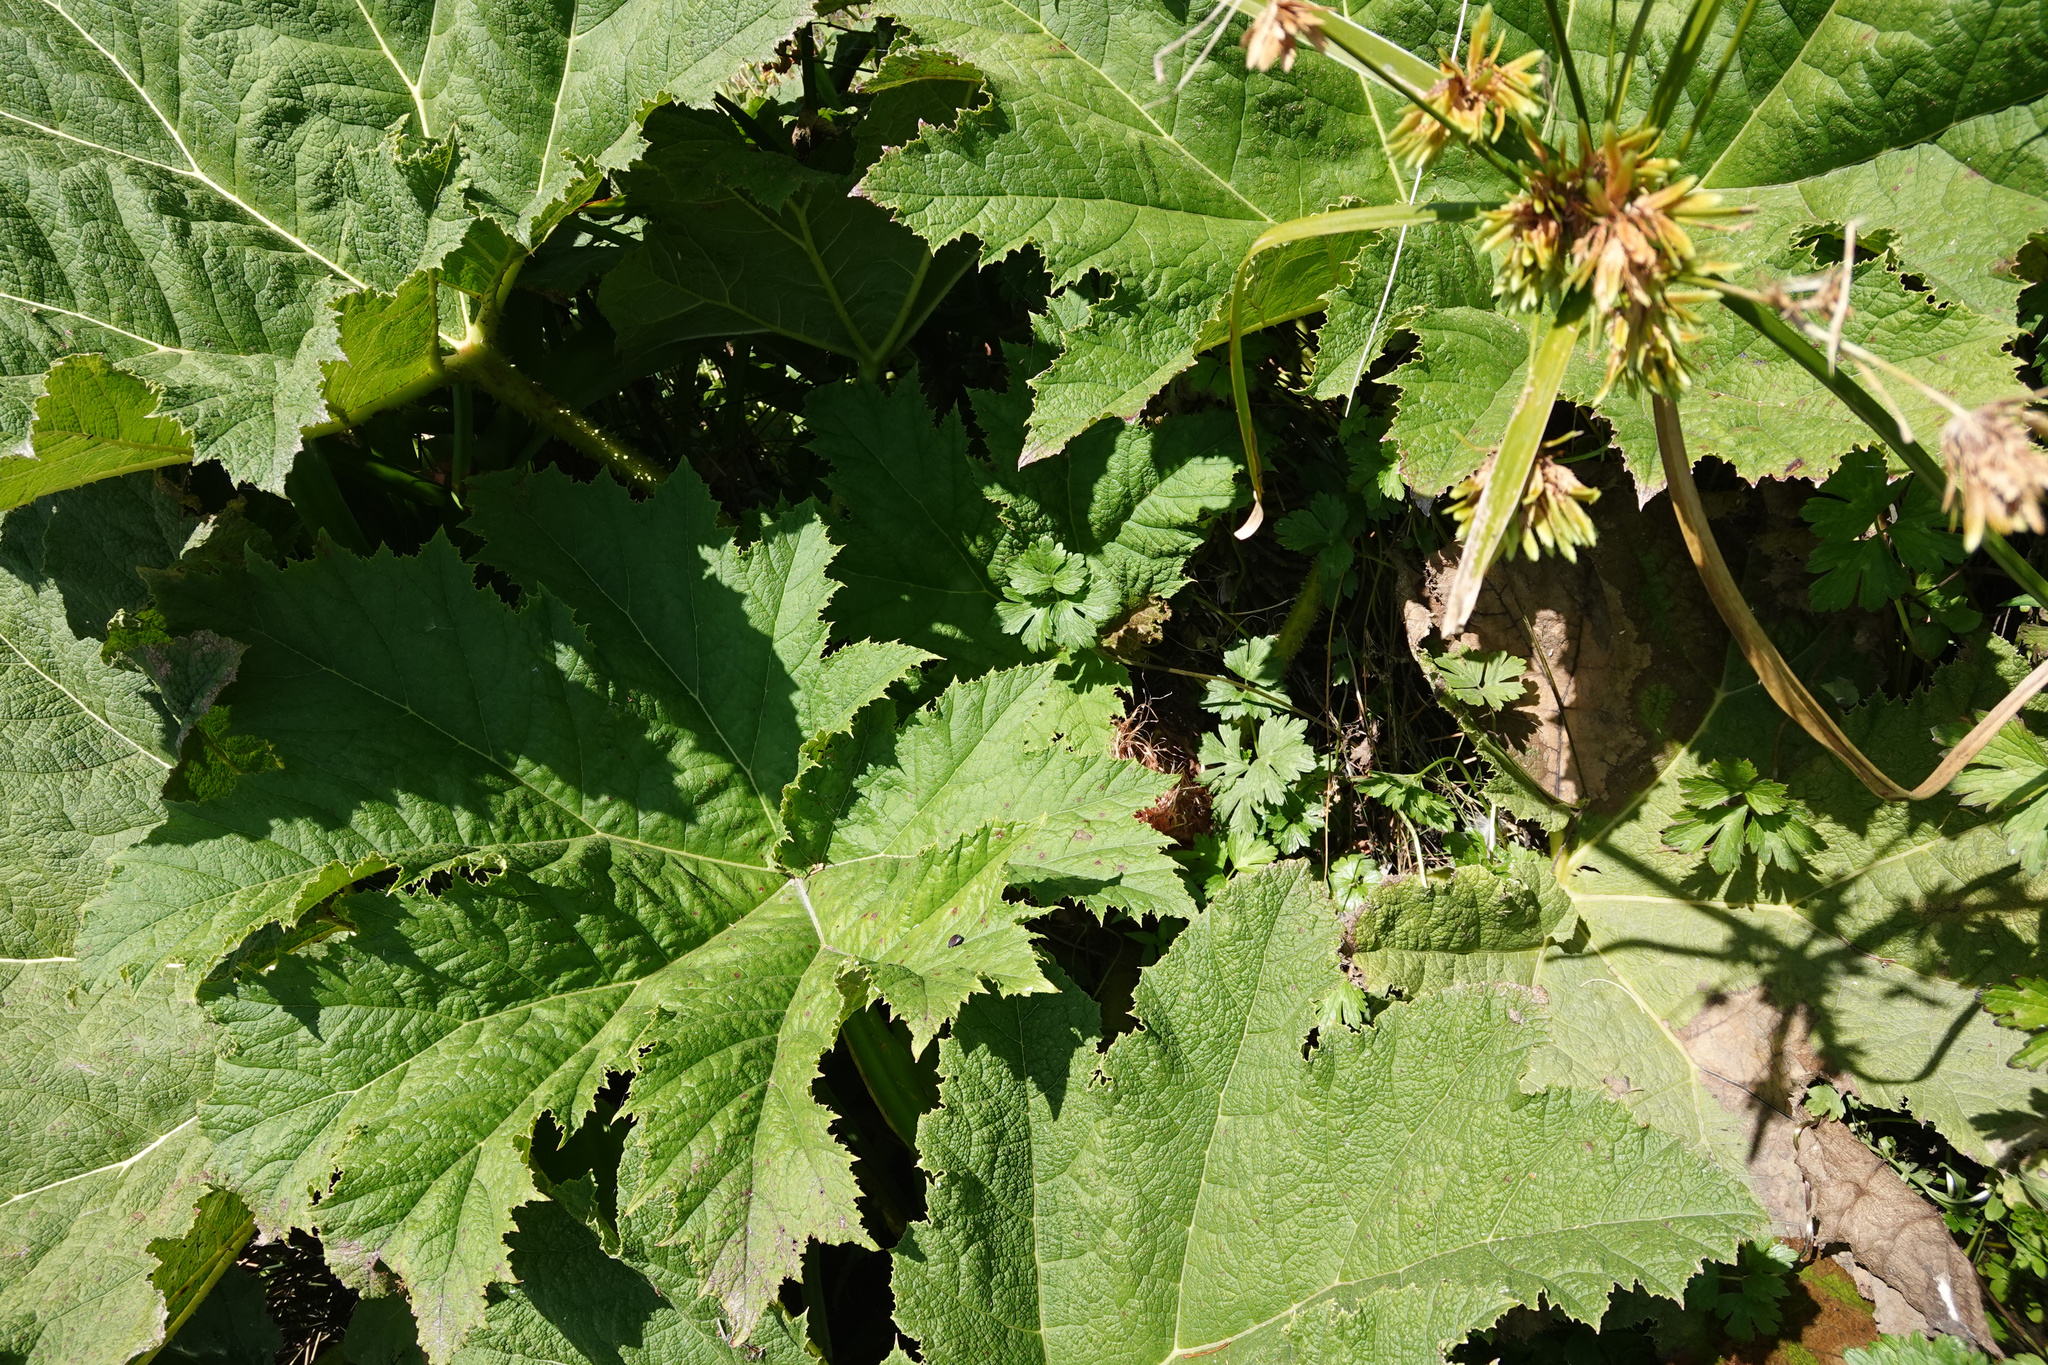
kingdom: Plantae
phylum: Tracheophyta
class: Magnoliopsida
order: Gunnerales
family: Gunneraceae
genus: Gunnera
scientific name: Gunnera tinctoria
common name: Giant-rhubarb
